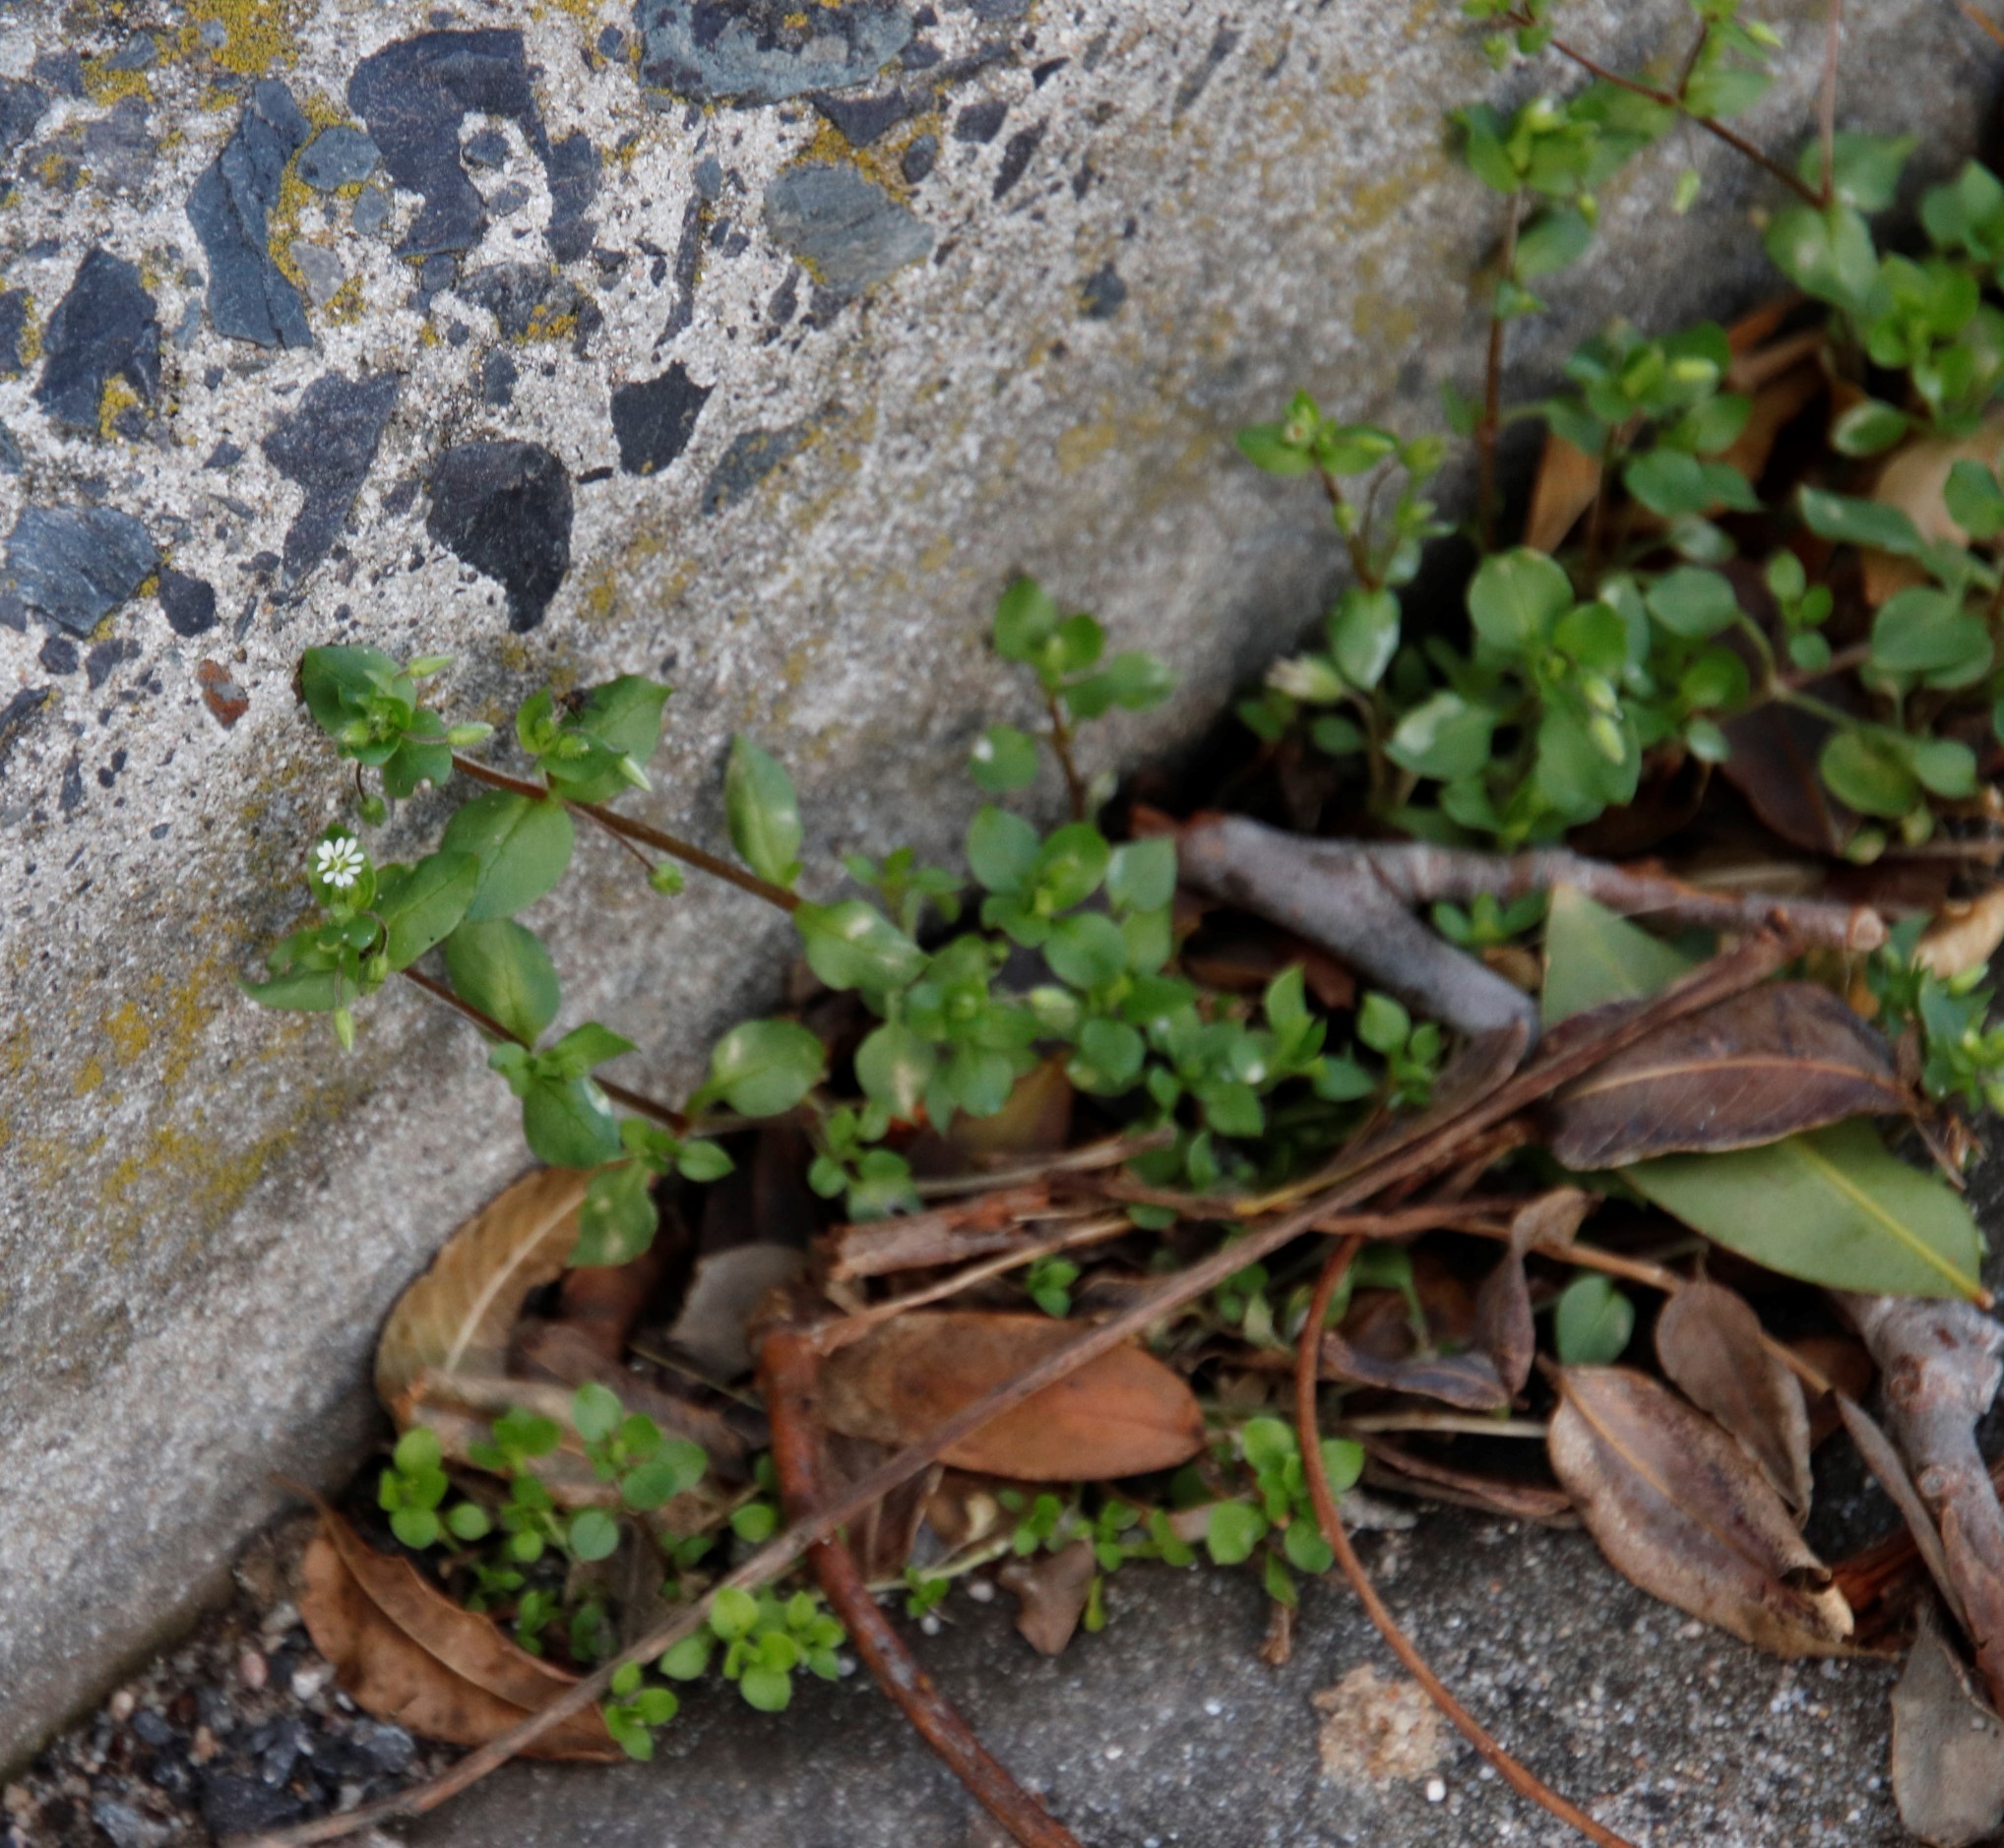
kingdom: Plantae
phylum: Tracheophyta
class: Magnoliopsida
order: Caryophyllales
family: Caryophyllaceae
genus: Stellaria
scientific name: Stellaria media
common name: Common chickweed
